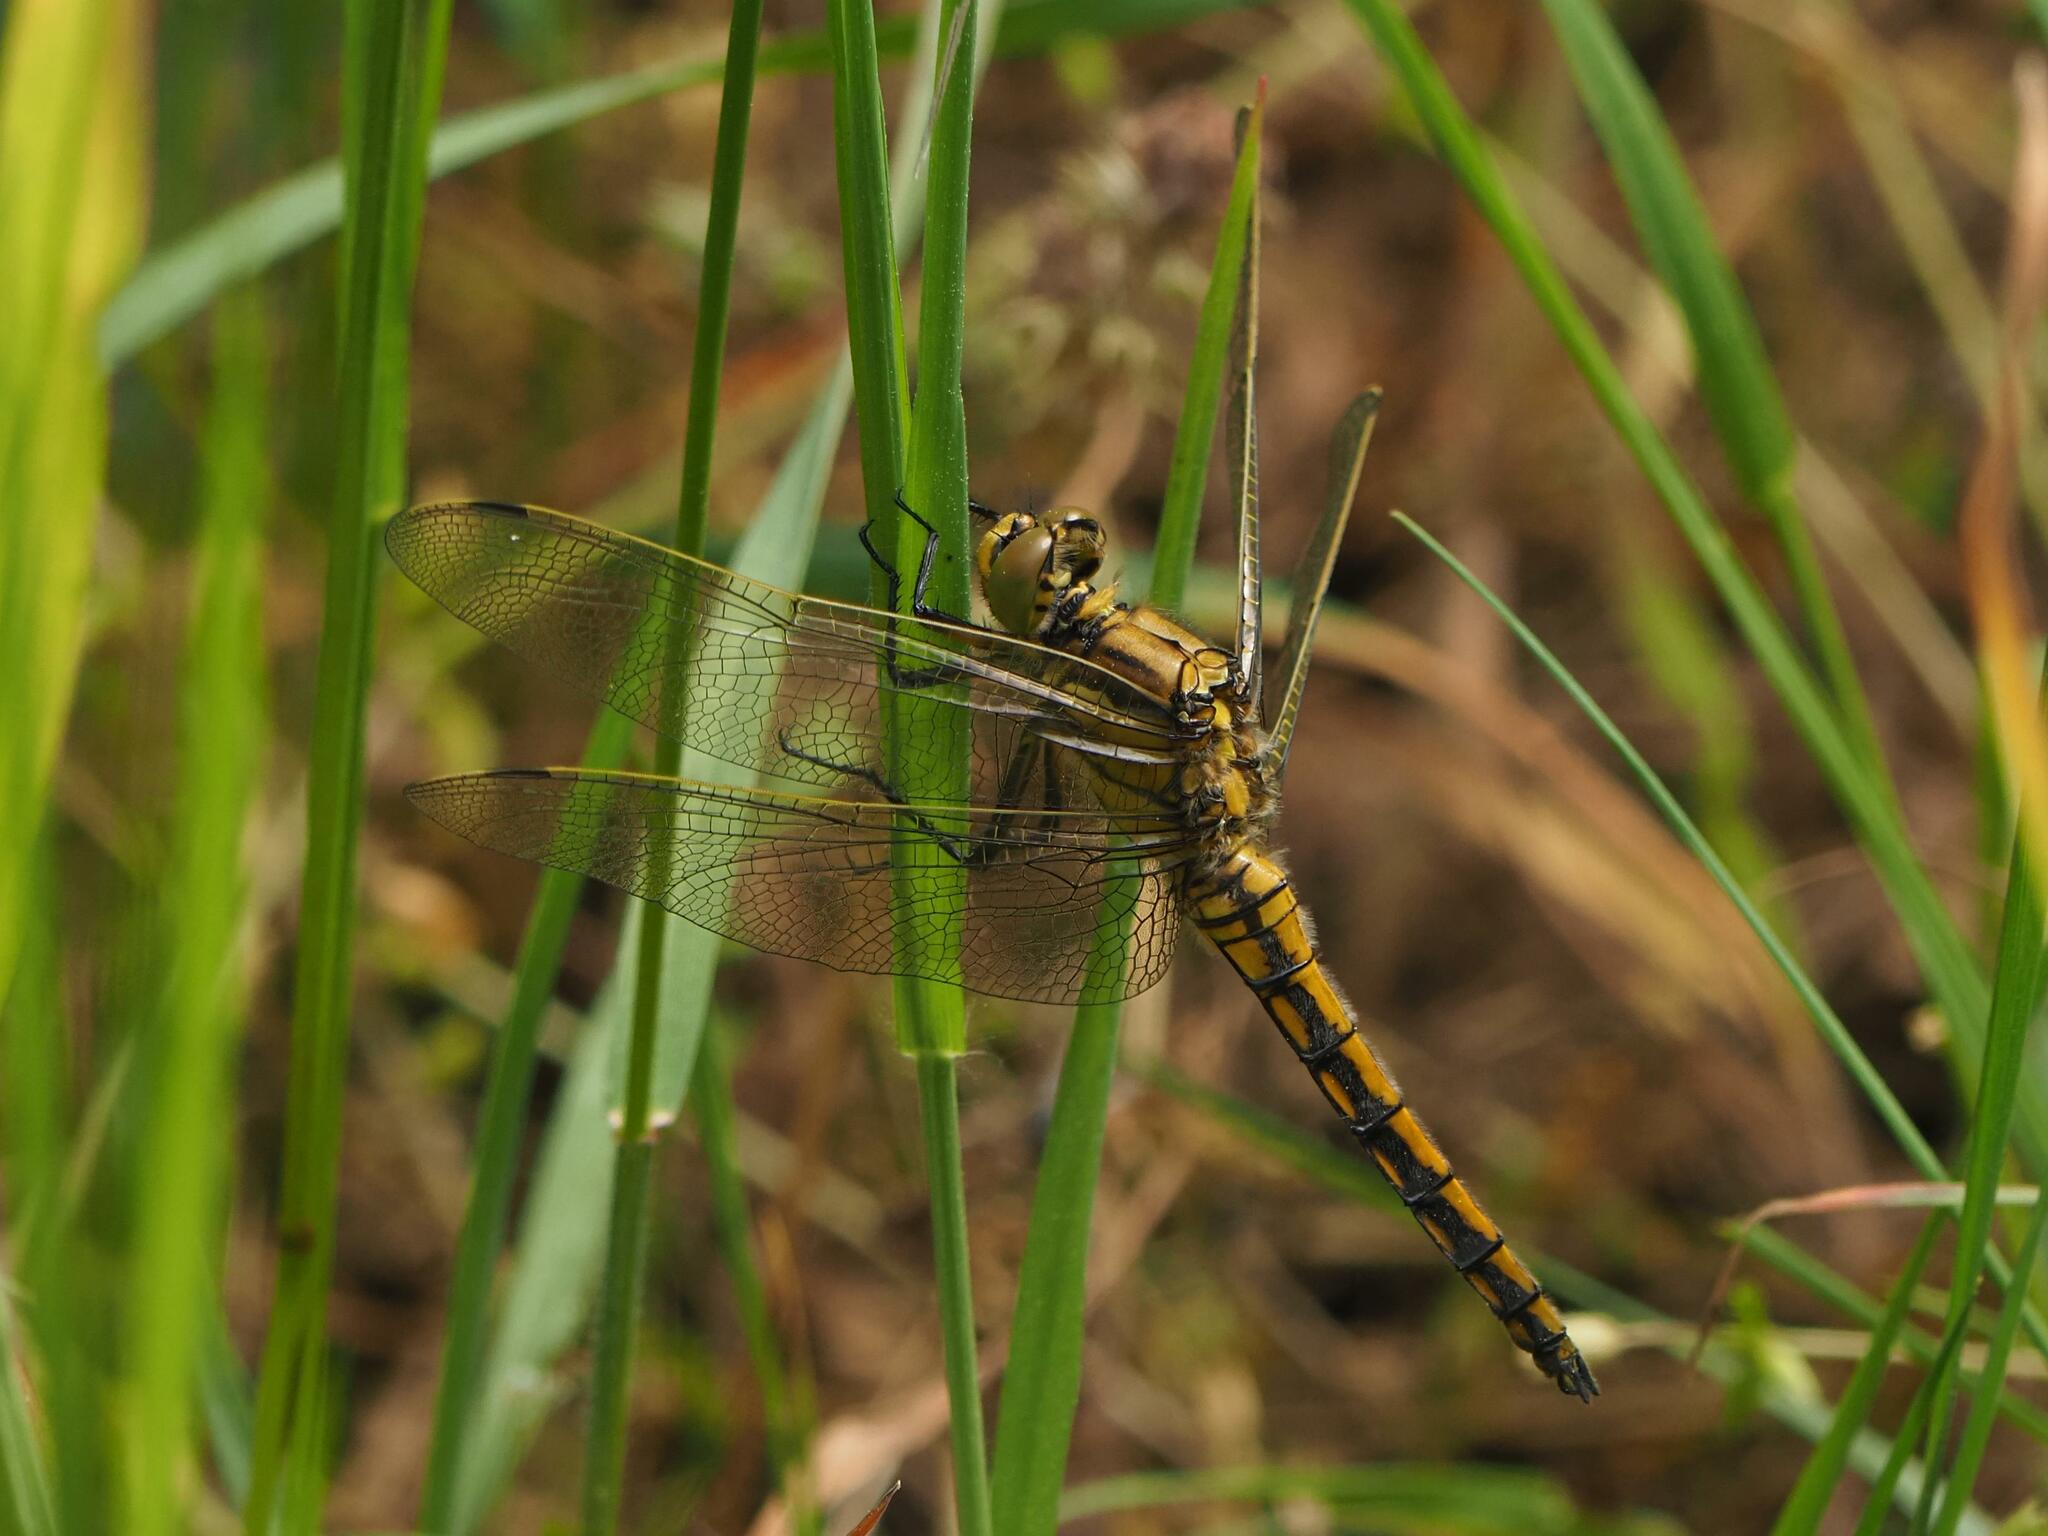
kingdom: Animalia
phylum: Arthropoda
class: Insecta
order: Odonata
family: Libellulidae
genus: Orthetrum
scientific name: Orthetrum cancellatum
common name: Black-tailed skimmer
